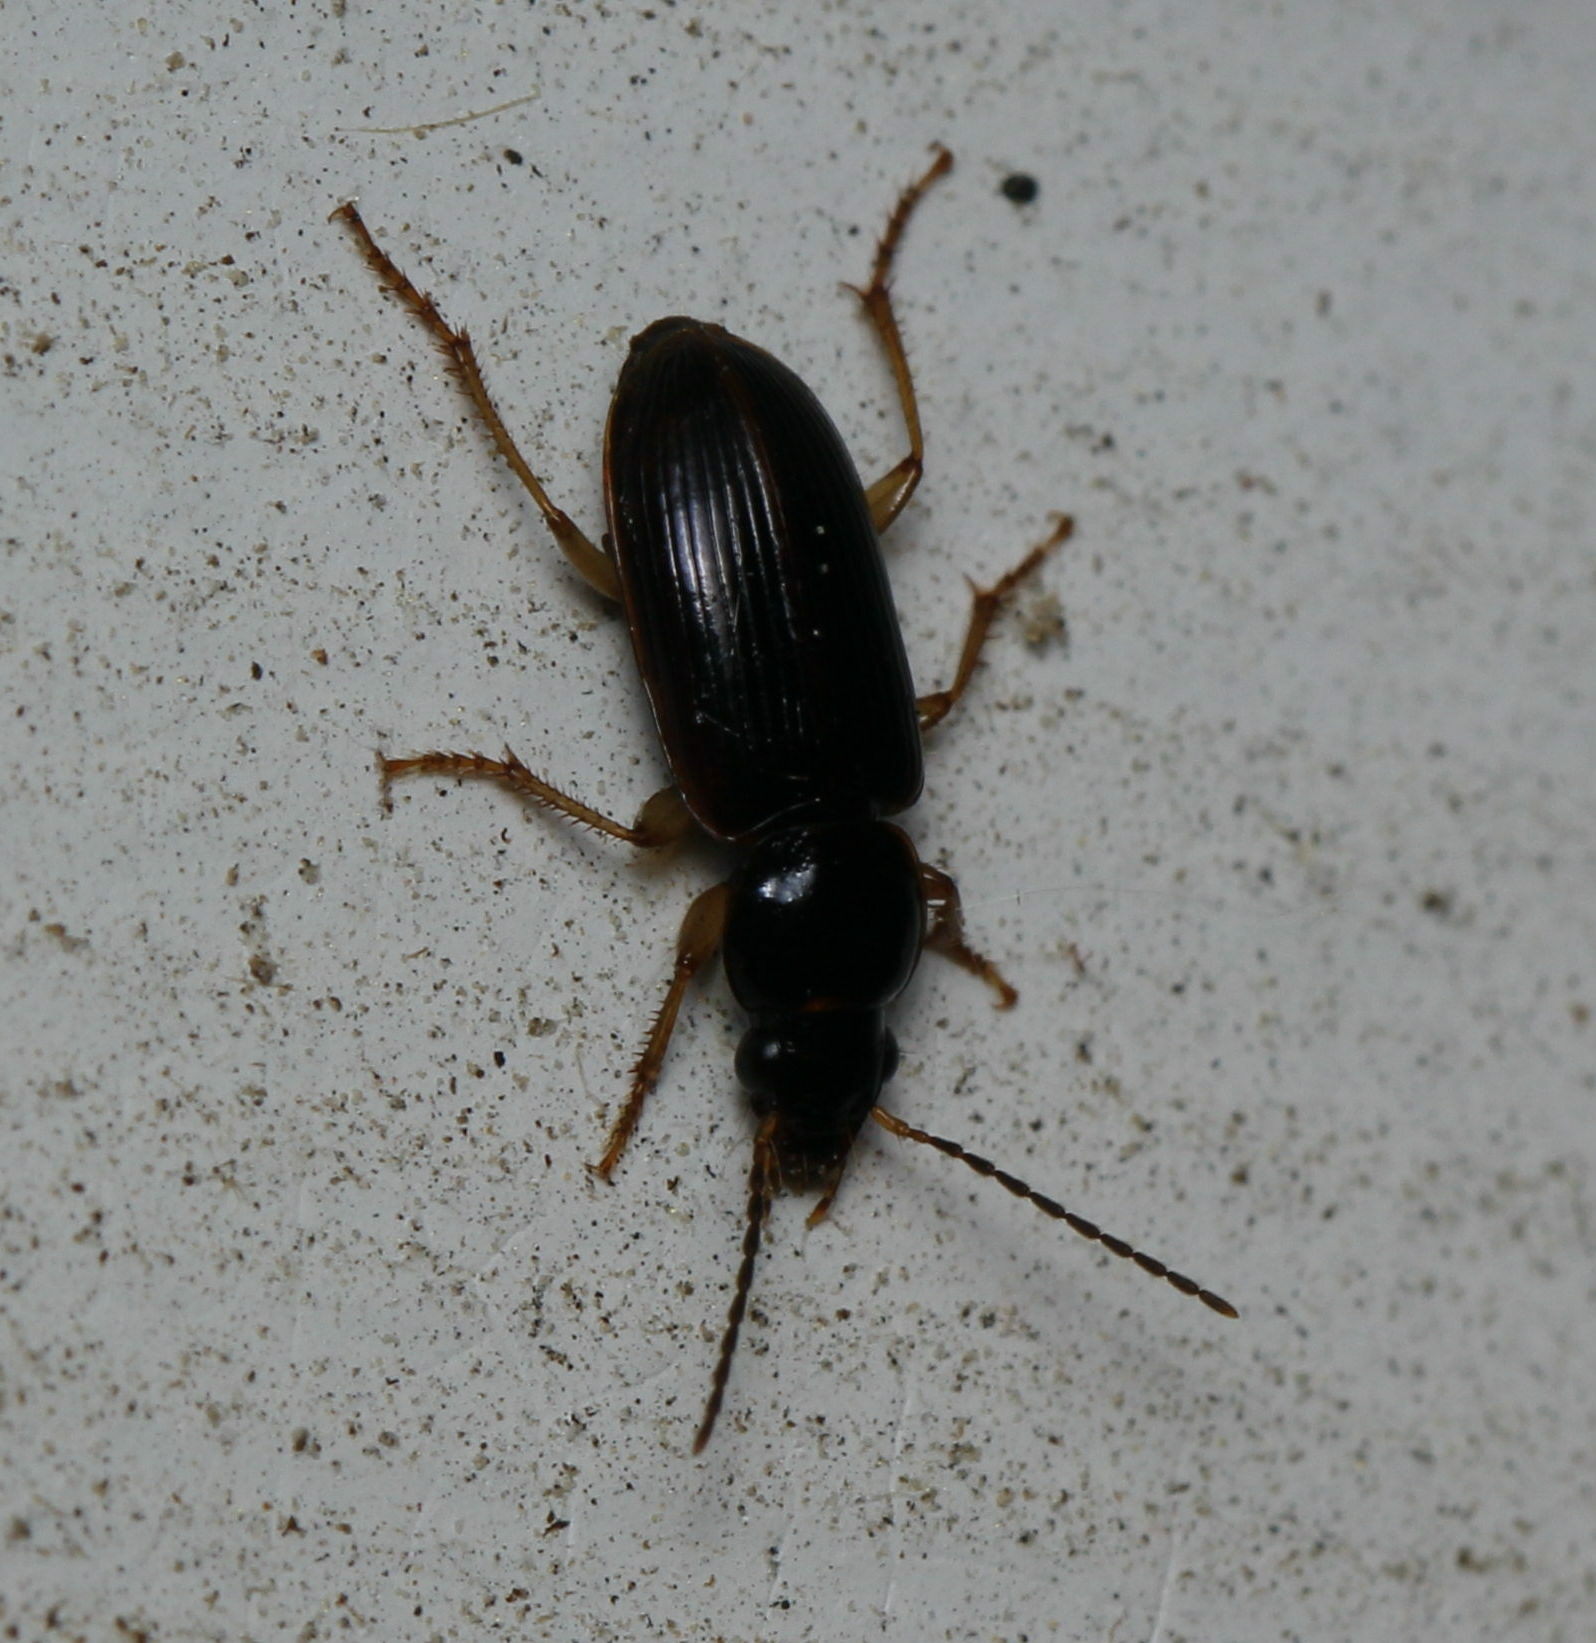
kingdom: Animalia
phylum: Arthropoda
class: Insecta
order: Coleoptera
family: Carabidae
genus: Stenolophus
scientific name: Stenolophus ochropezus
